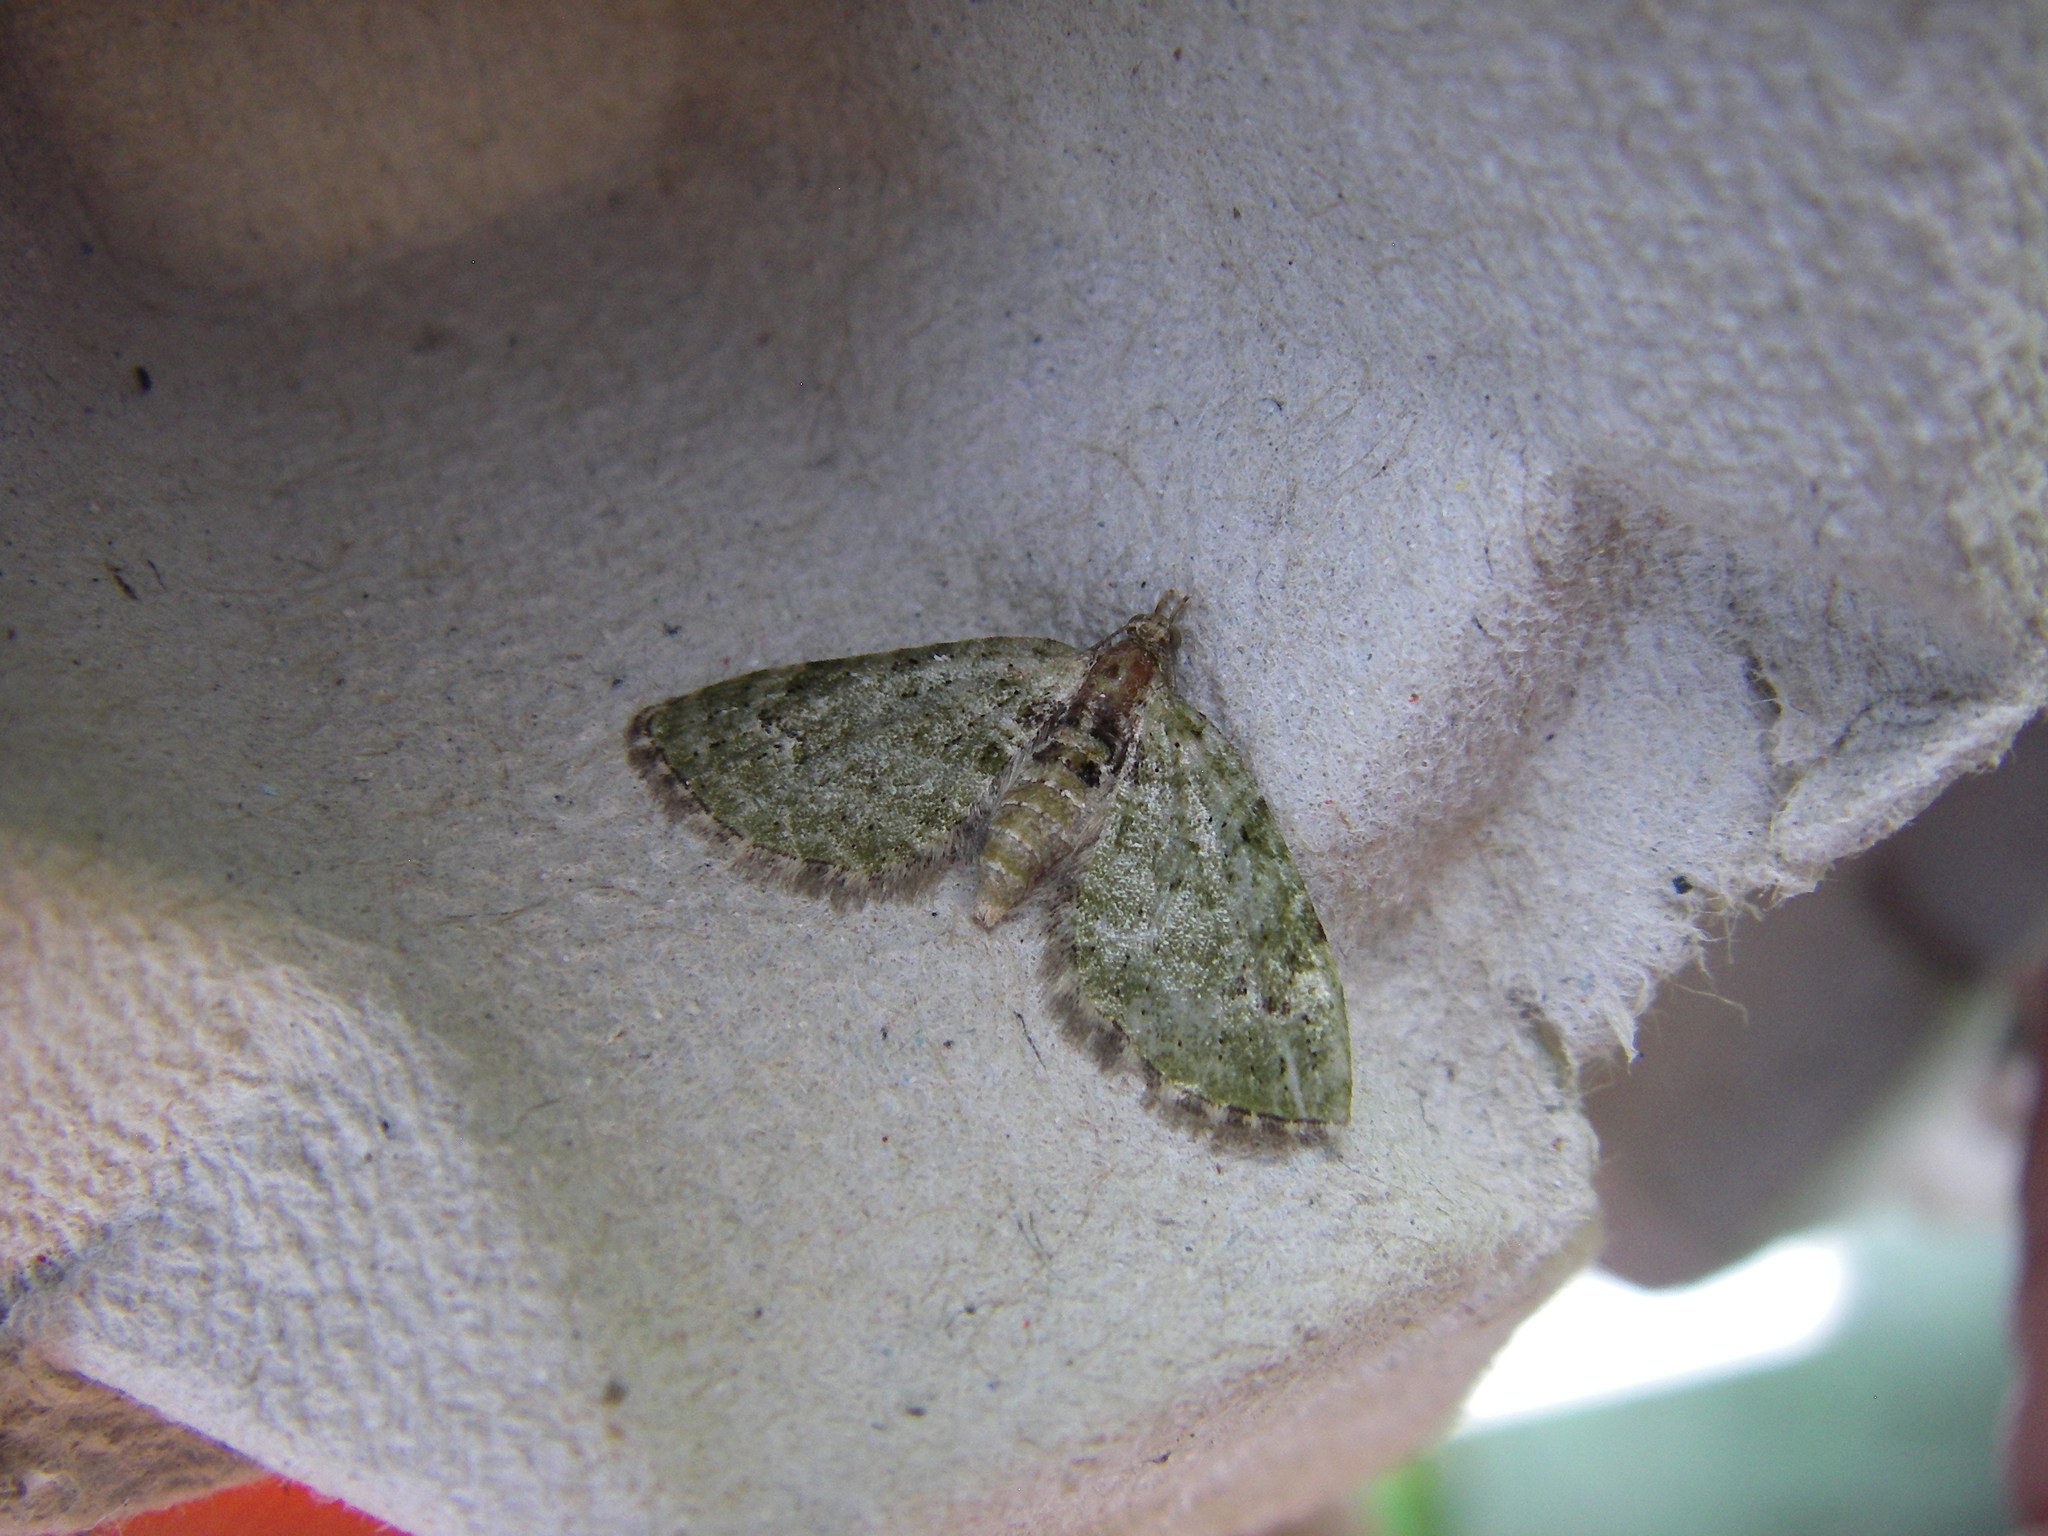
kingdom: Animalia
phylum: Arthropoda
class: Insecta
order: Lepidoptera
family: Geometridae
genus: Chloroclystis
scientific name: Chloroclystis v-ata
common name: V-pug
